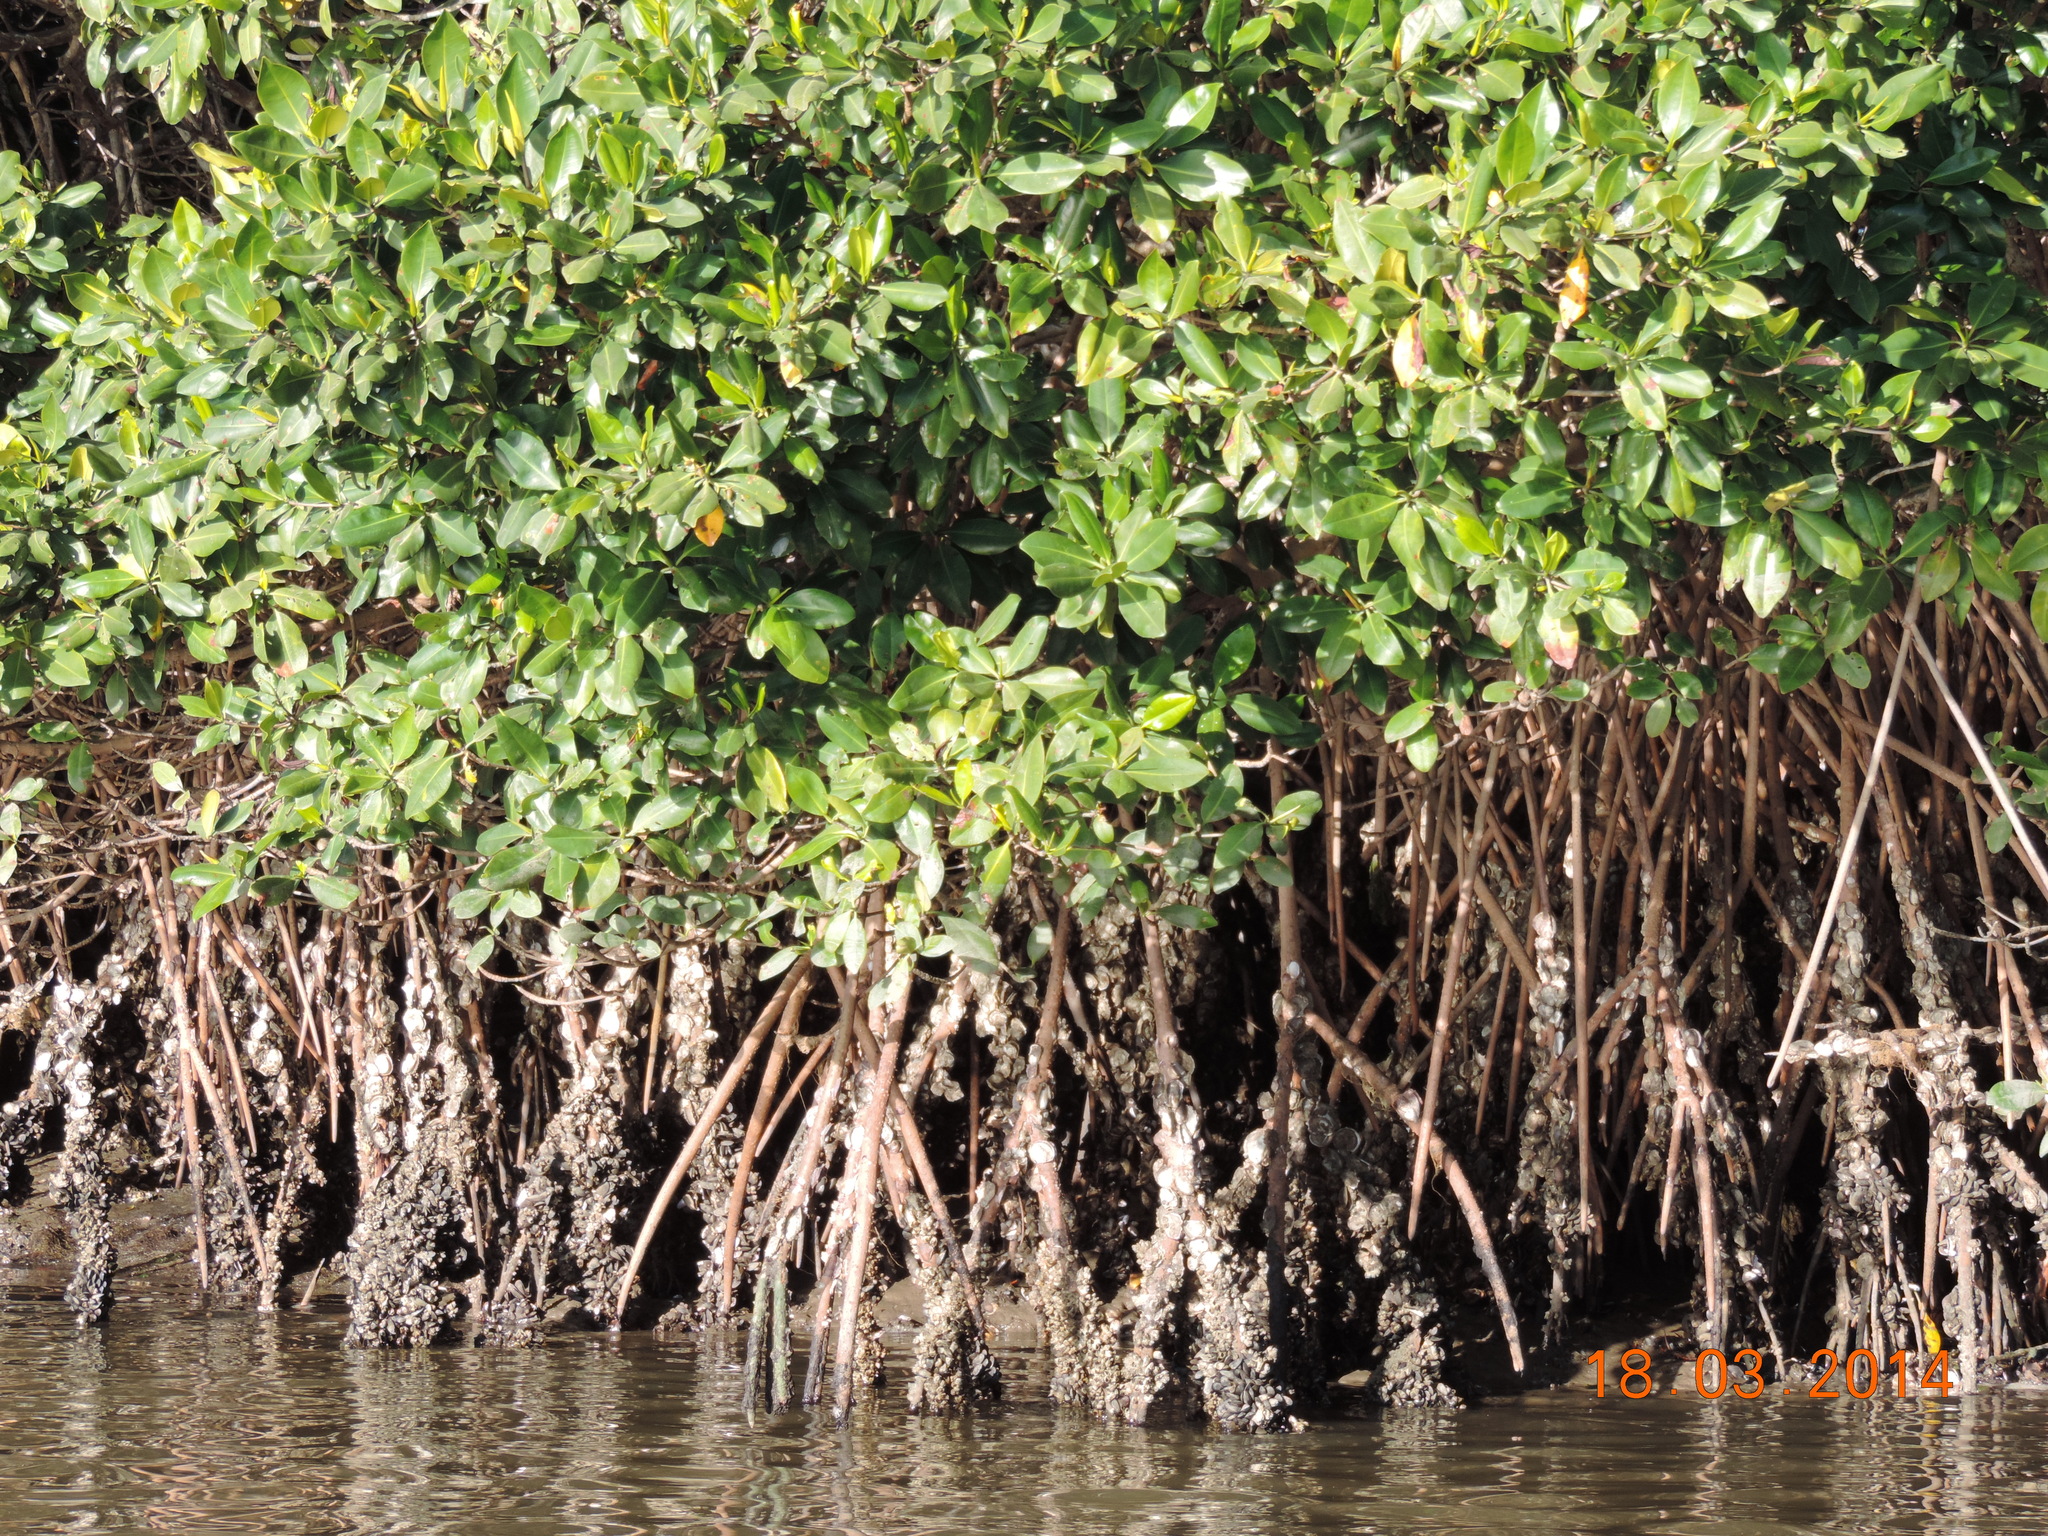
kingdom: Plantae
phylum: Tracheophyta
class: Magnoliopsida
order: Malpighiales
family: Rhizophoraceae
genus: Rhizophora
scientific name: Rhizophora mangle
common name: Red mangrove
